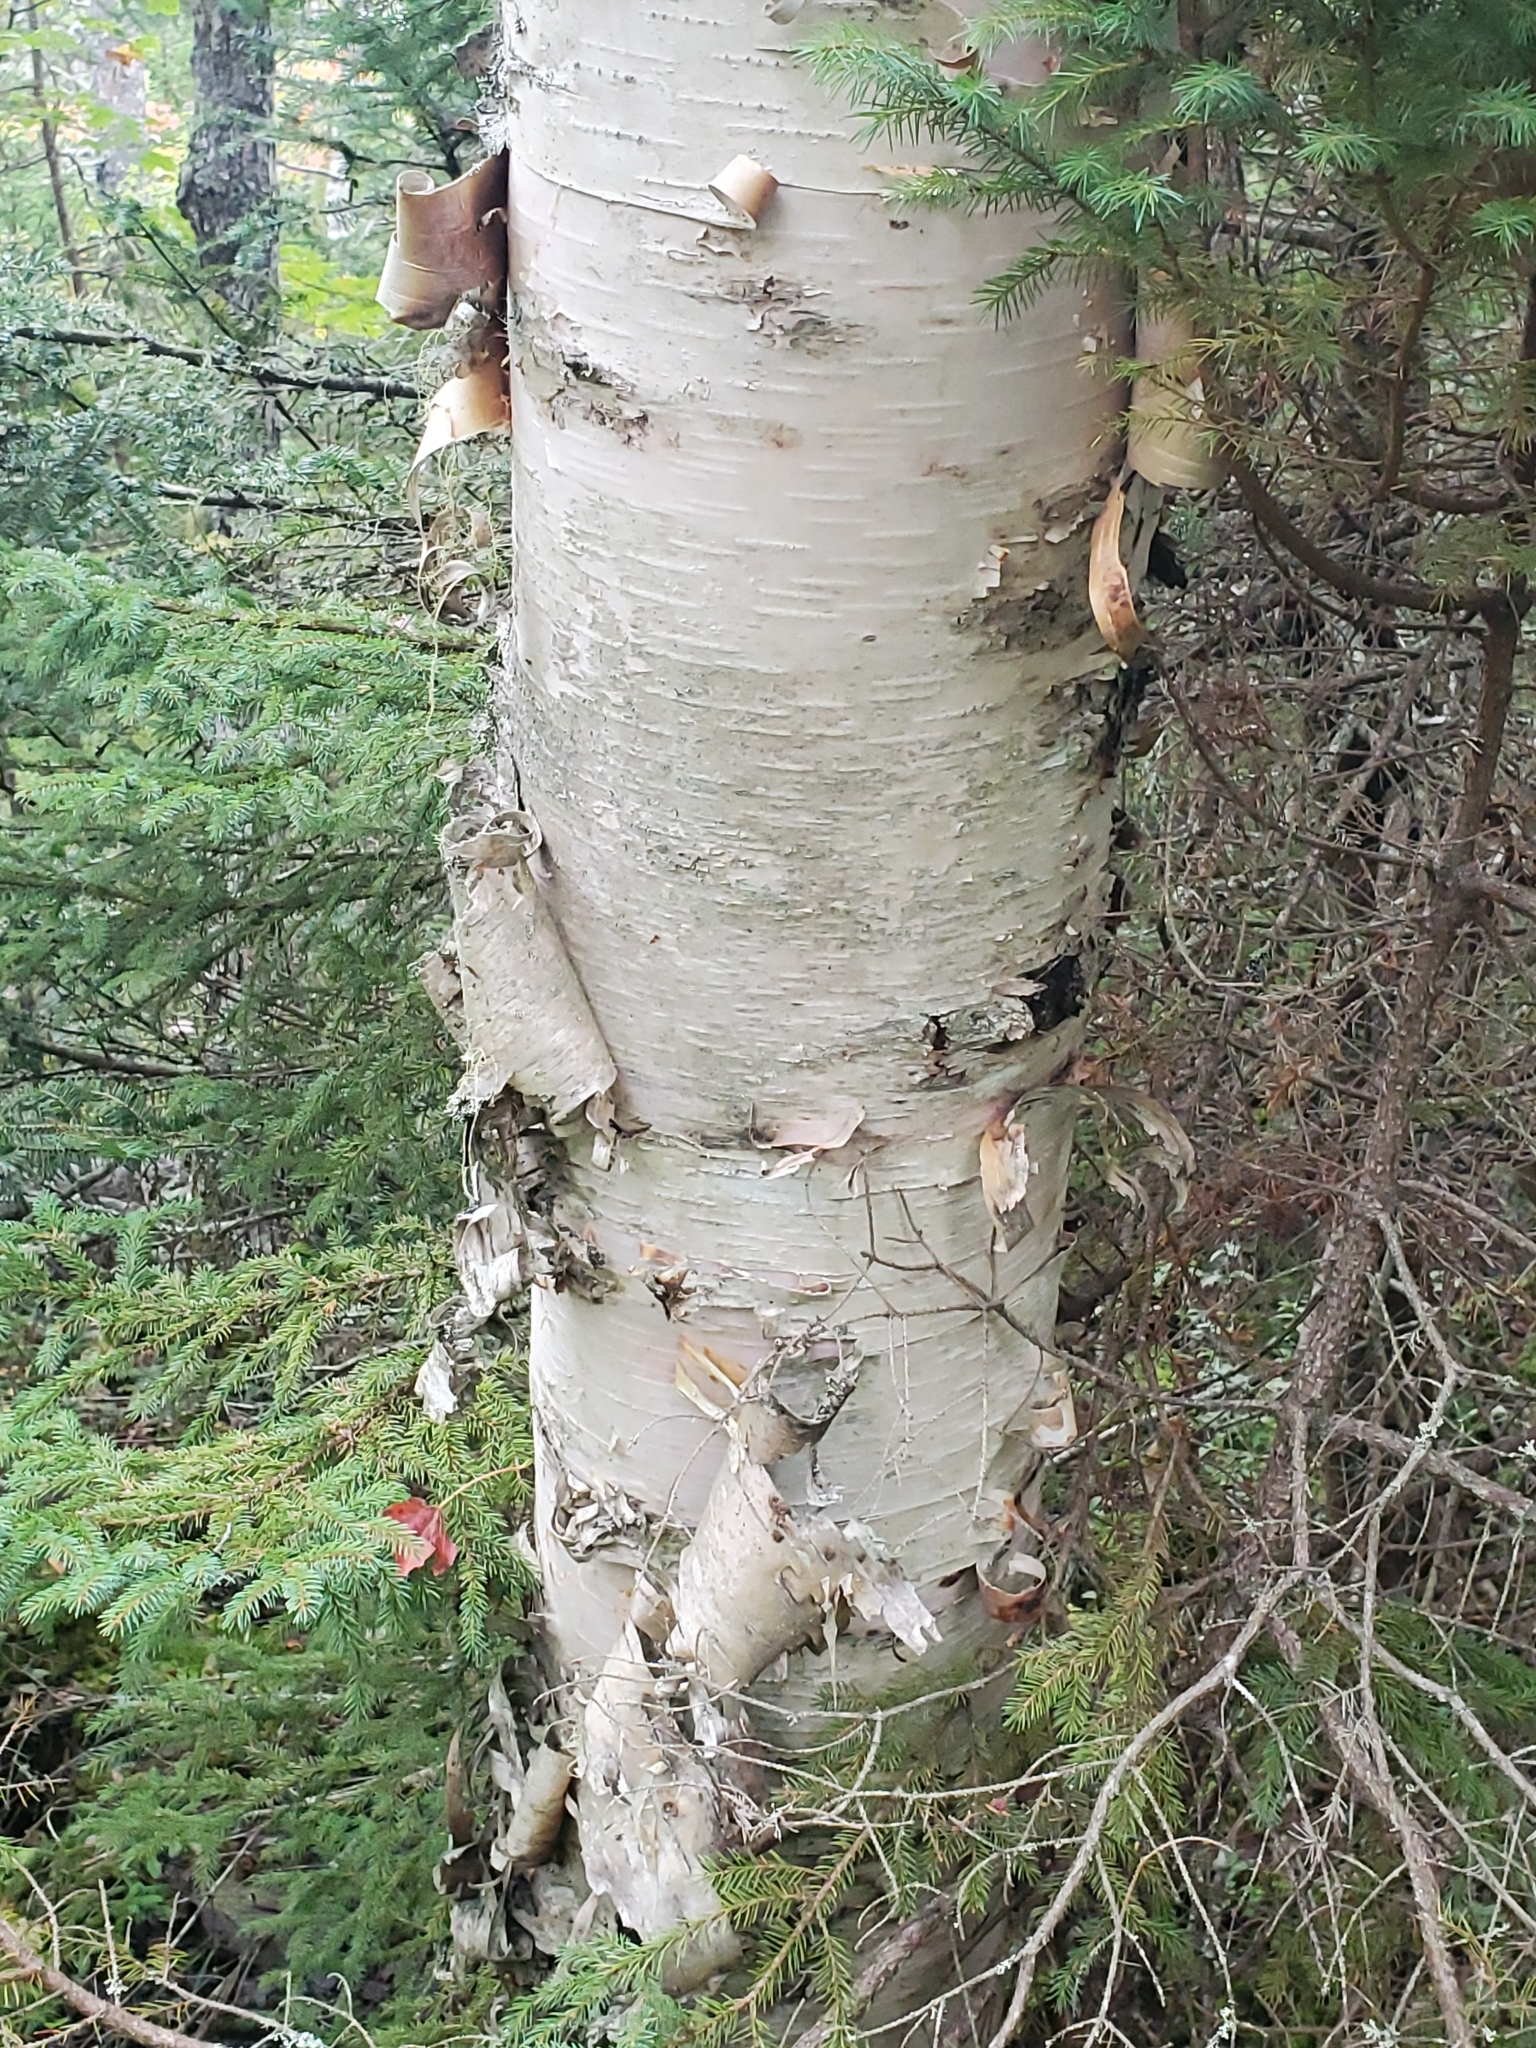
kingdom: Plantae
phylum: Tracheophyta
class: Magnoliopsida
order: Fagales
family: Betulaceae
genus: Betula
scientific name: Betula papyrifera
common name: Paper birch
